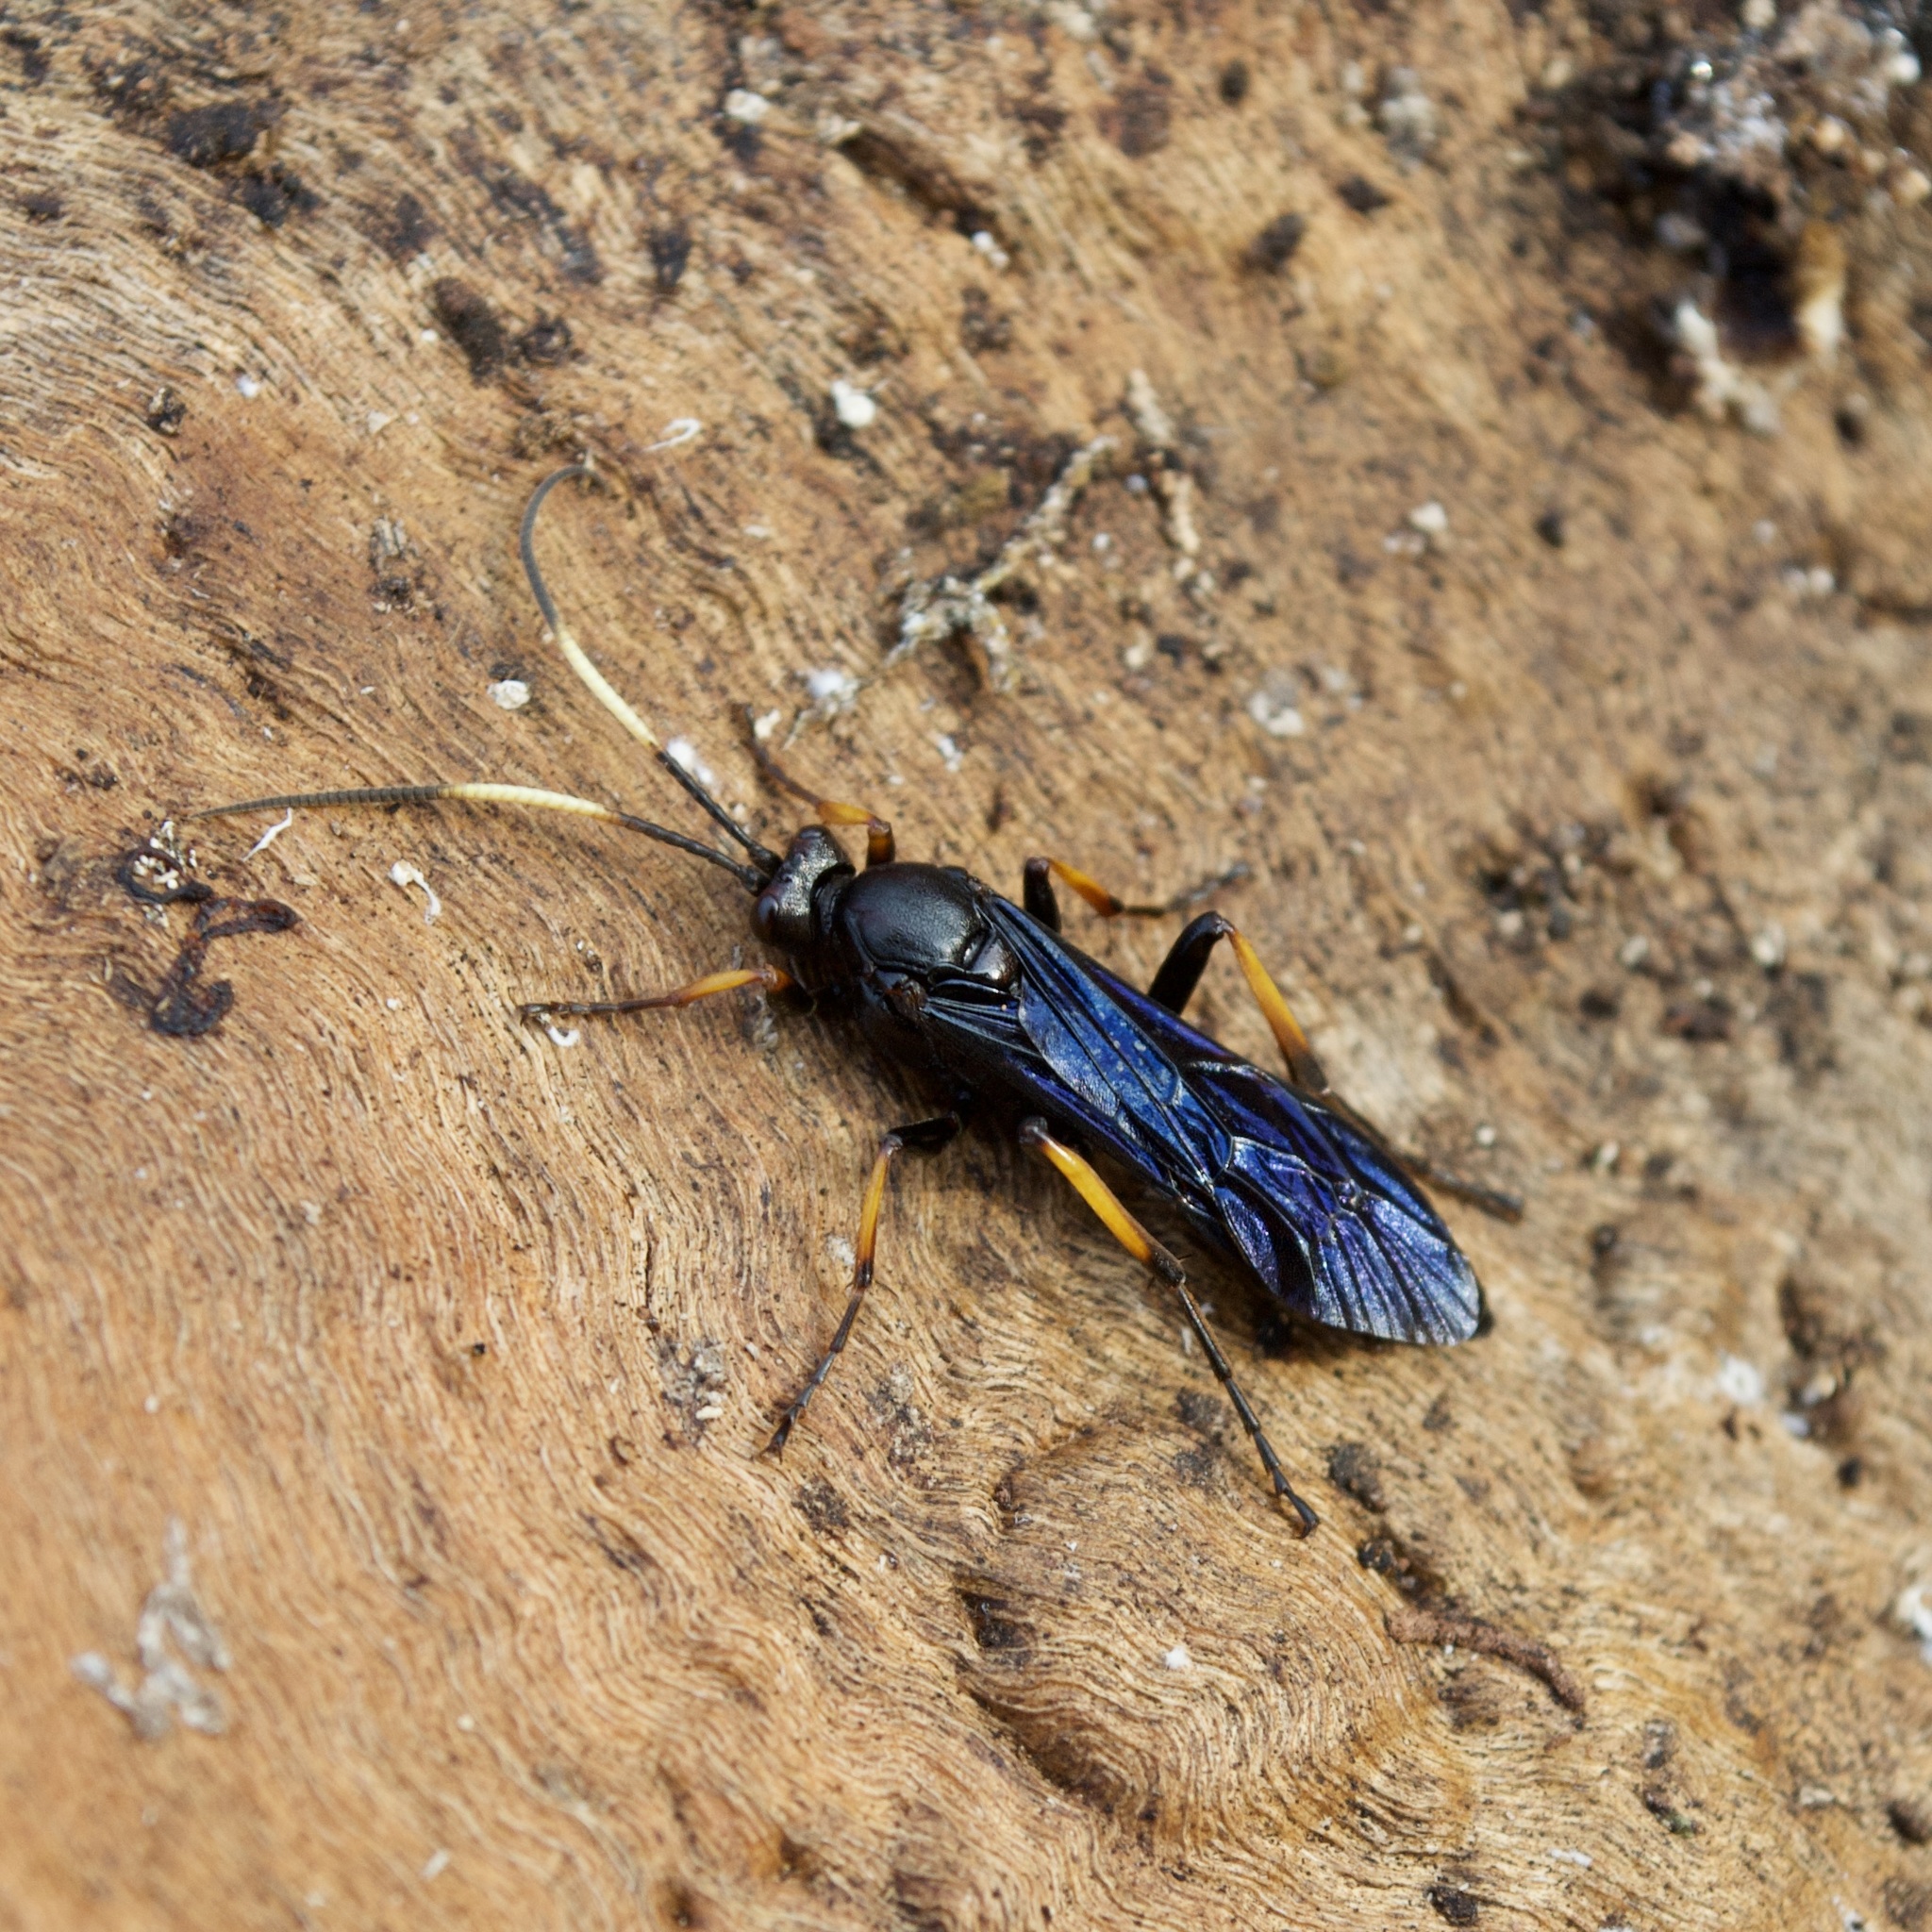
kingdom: Animalia
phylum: Arthropoda
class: Insecta
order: Hymenoptera
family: Ichneumonidae
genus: Ichneumon
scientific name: Ichneumon centrator
